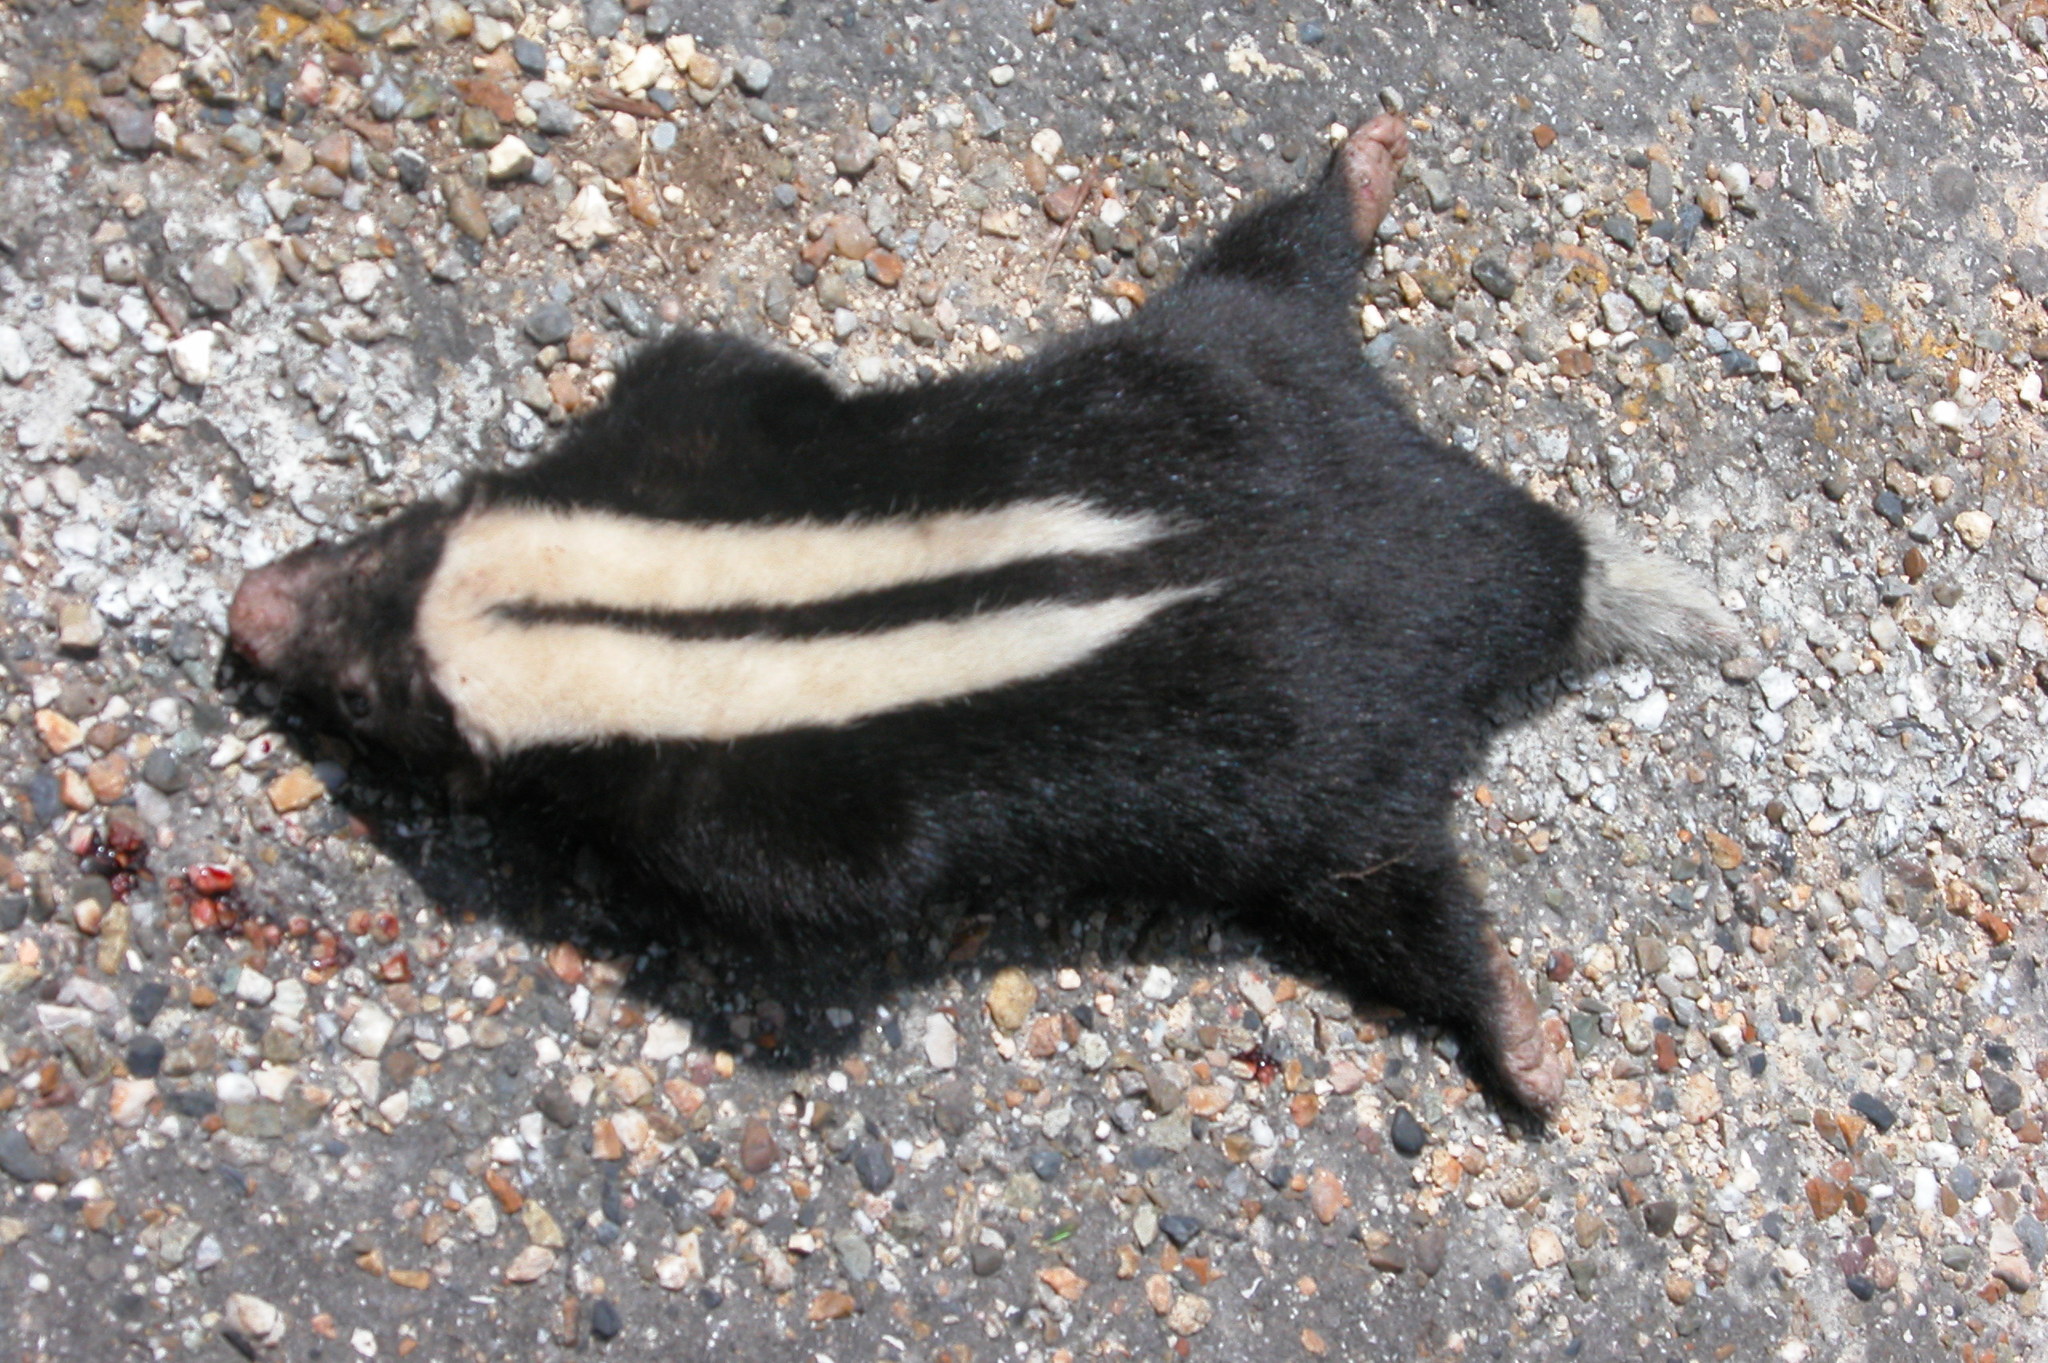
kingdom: Animalia
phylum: Chordata
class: Mammalia
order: Carnivora
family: Mephitidae
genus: Conepatus
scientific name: Conepatus semistriatus
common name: Striped hog-nosed skunk
